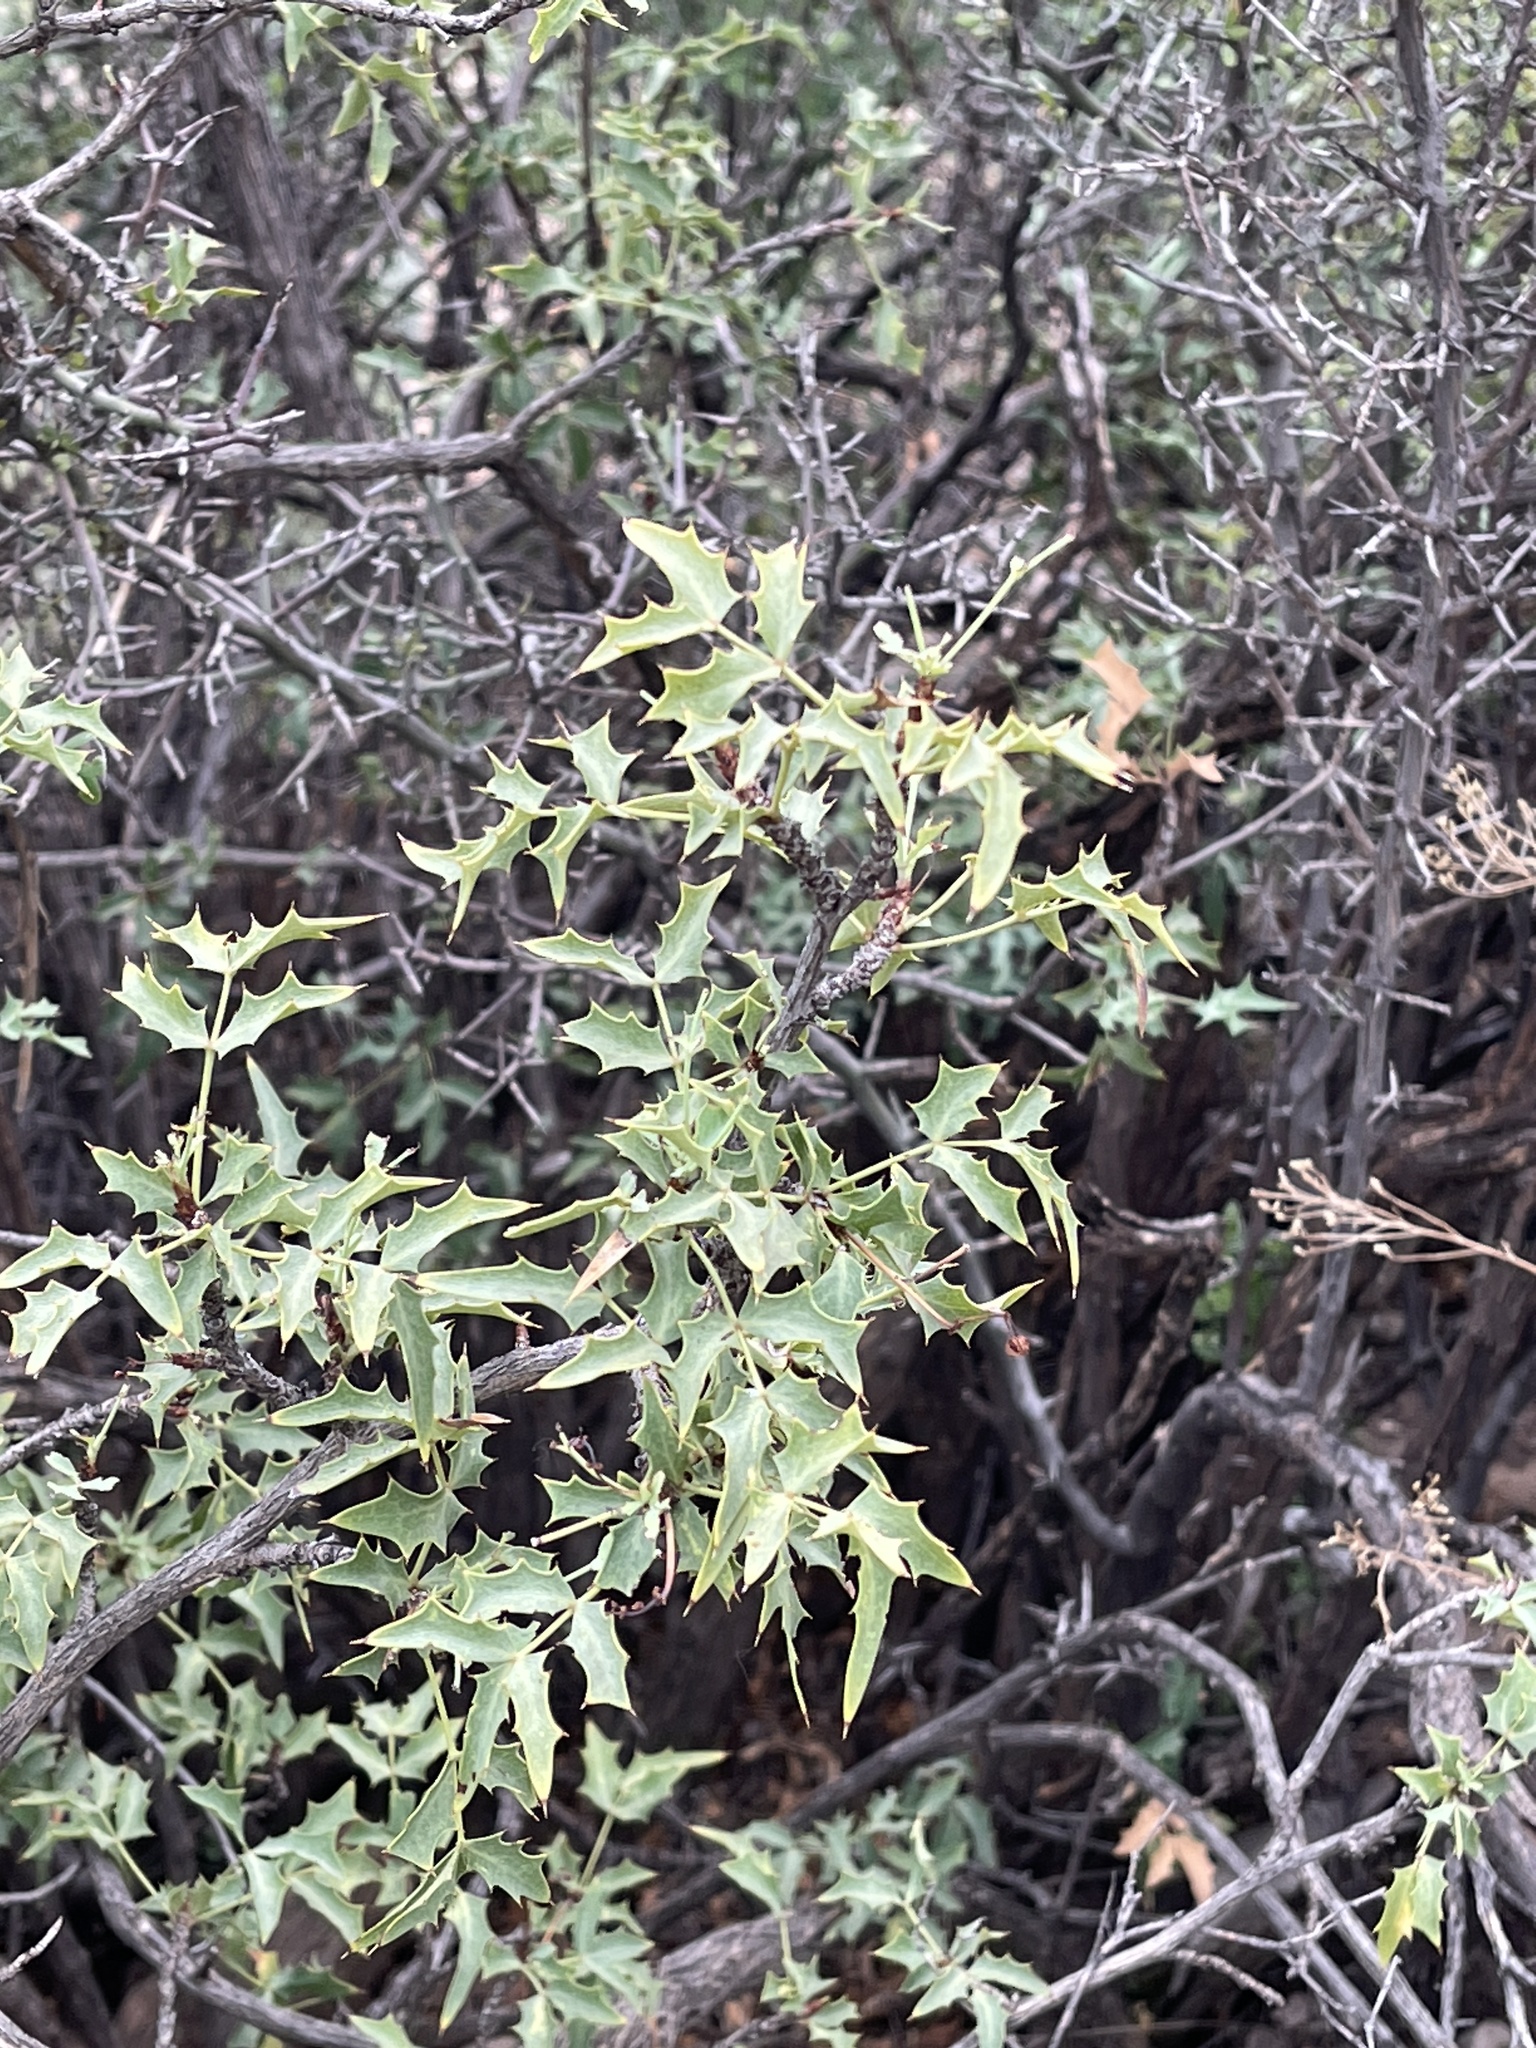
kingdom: Plantae
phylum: Tracheophyta
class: Magnoliopsida
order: Ranunculales
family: Berberidaceae
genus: Alloberberis
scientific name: Alloberberis haematocarpa
